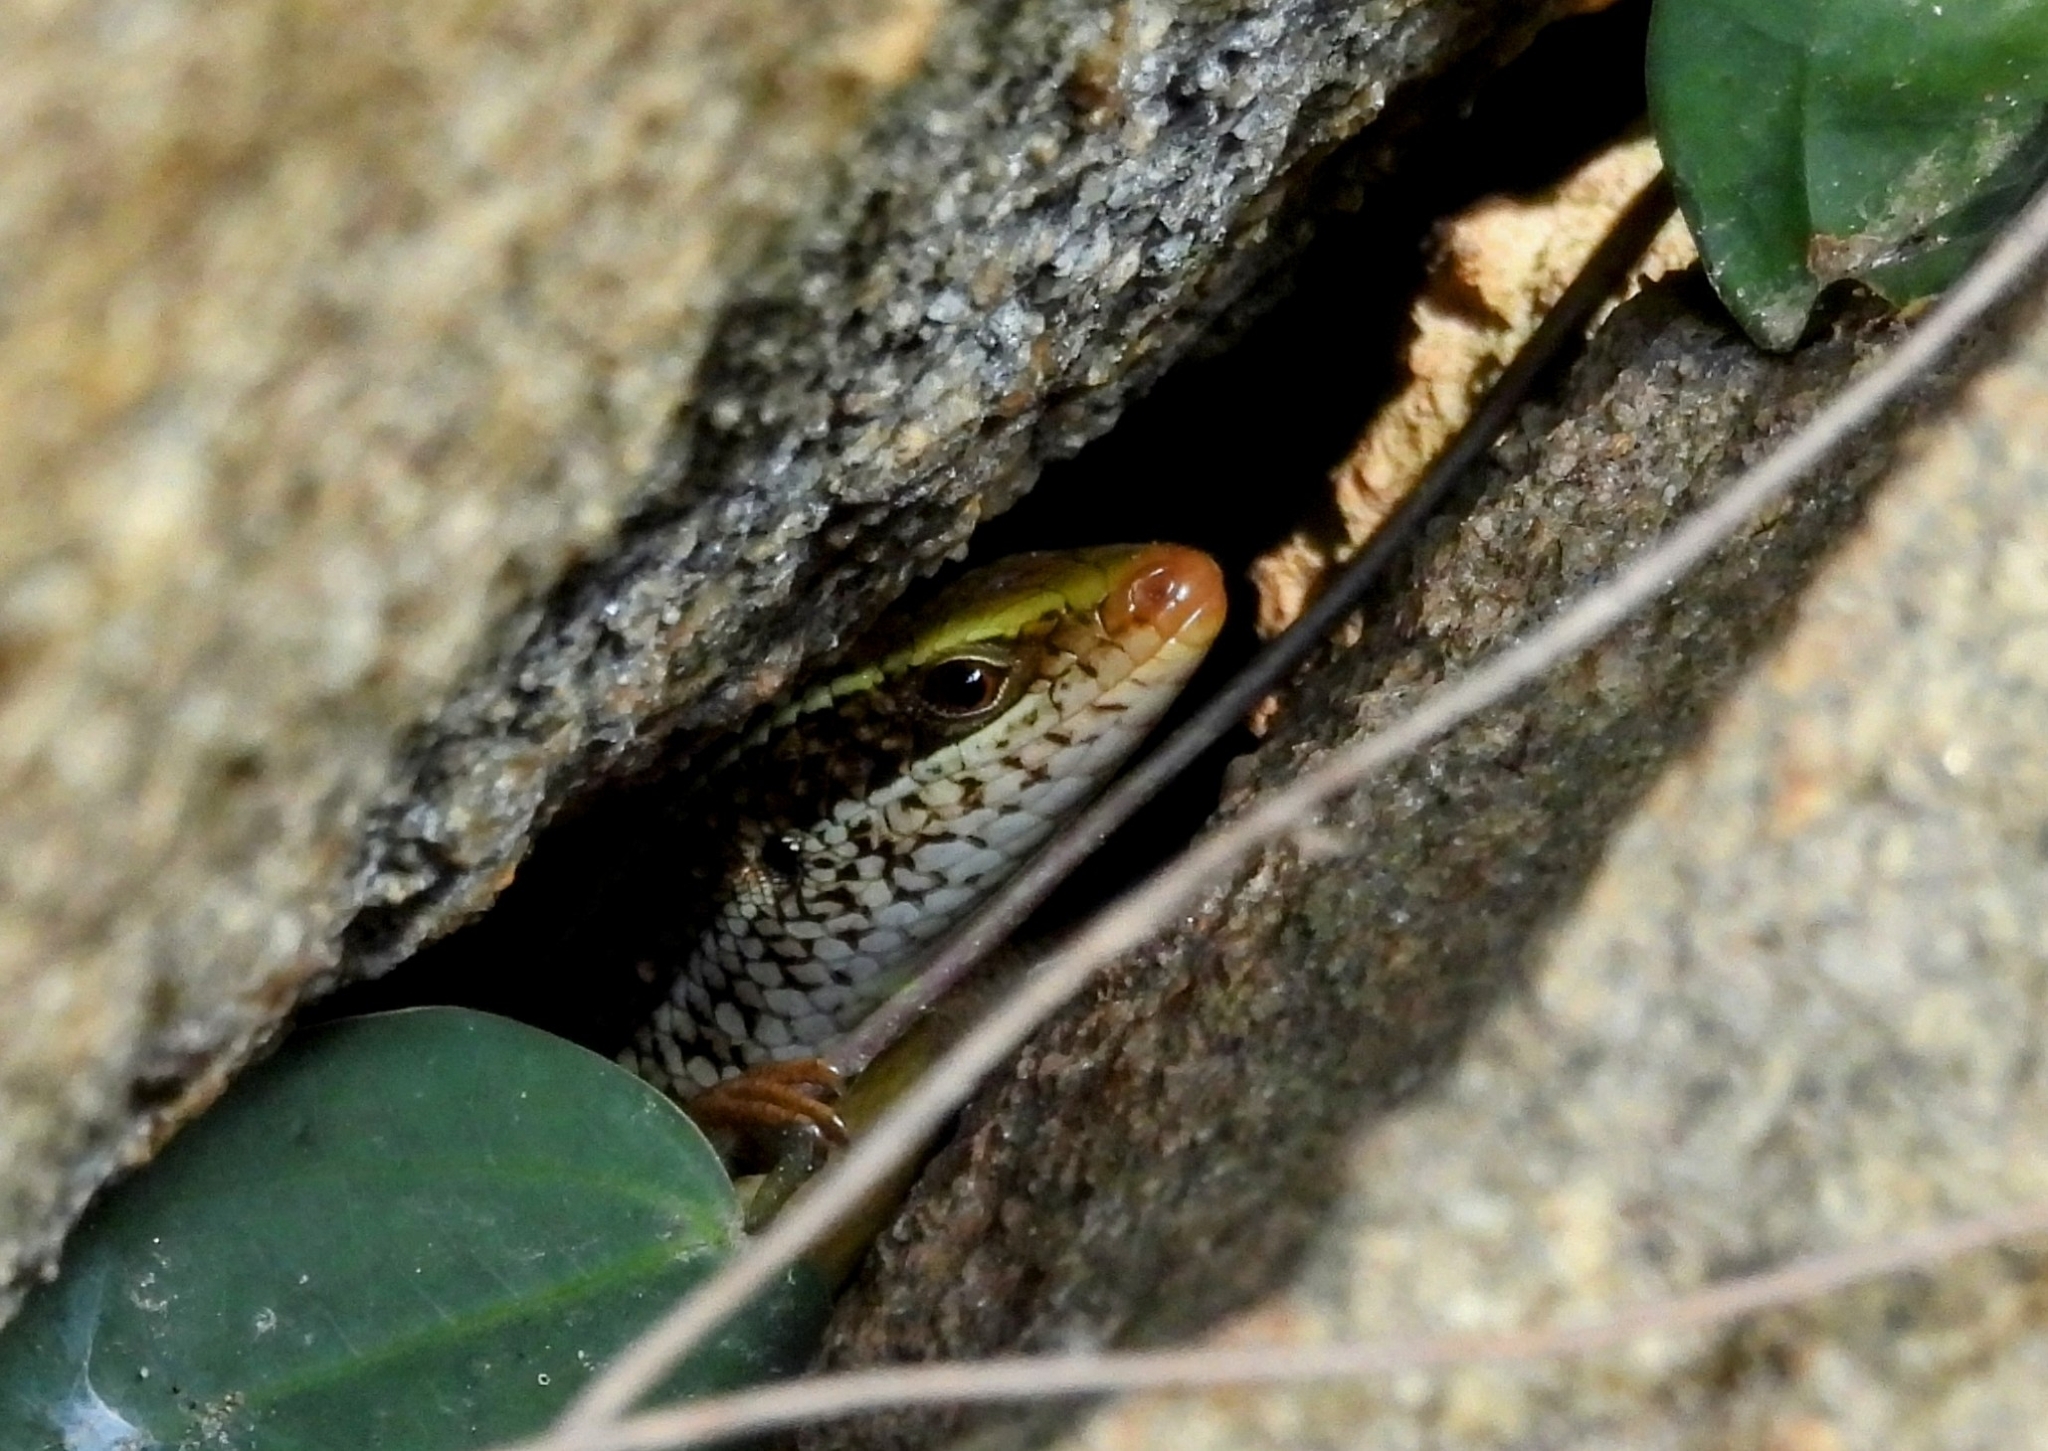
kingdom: Animalia
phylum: Chordata
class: Squamata
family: Scincidae
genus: Eutropis
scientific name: Eutropis carinata
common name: Keeled indian mabuya
